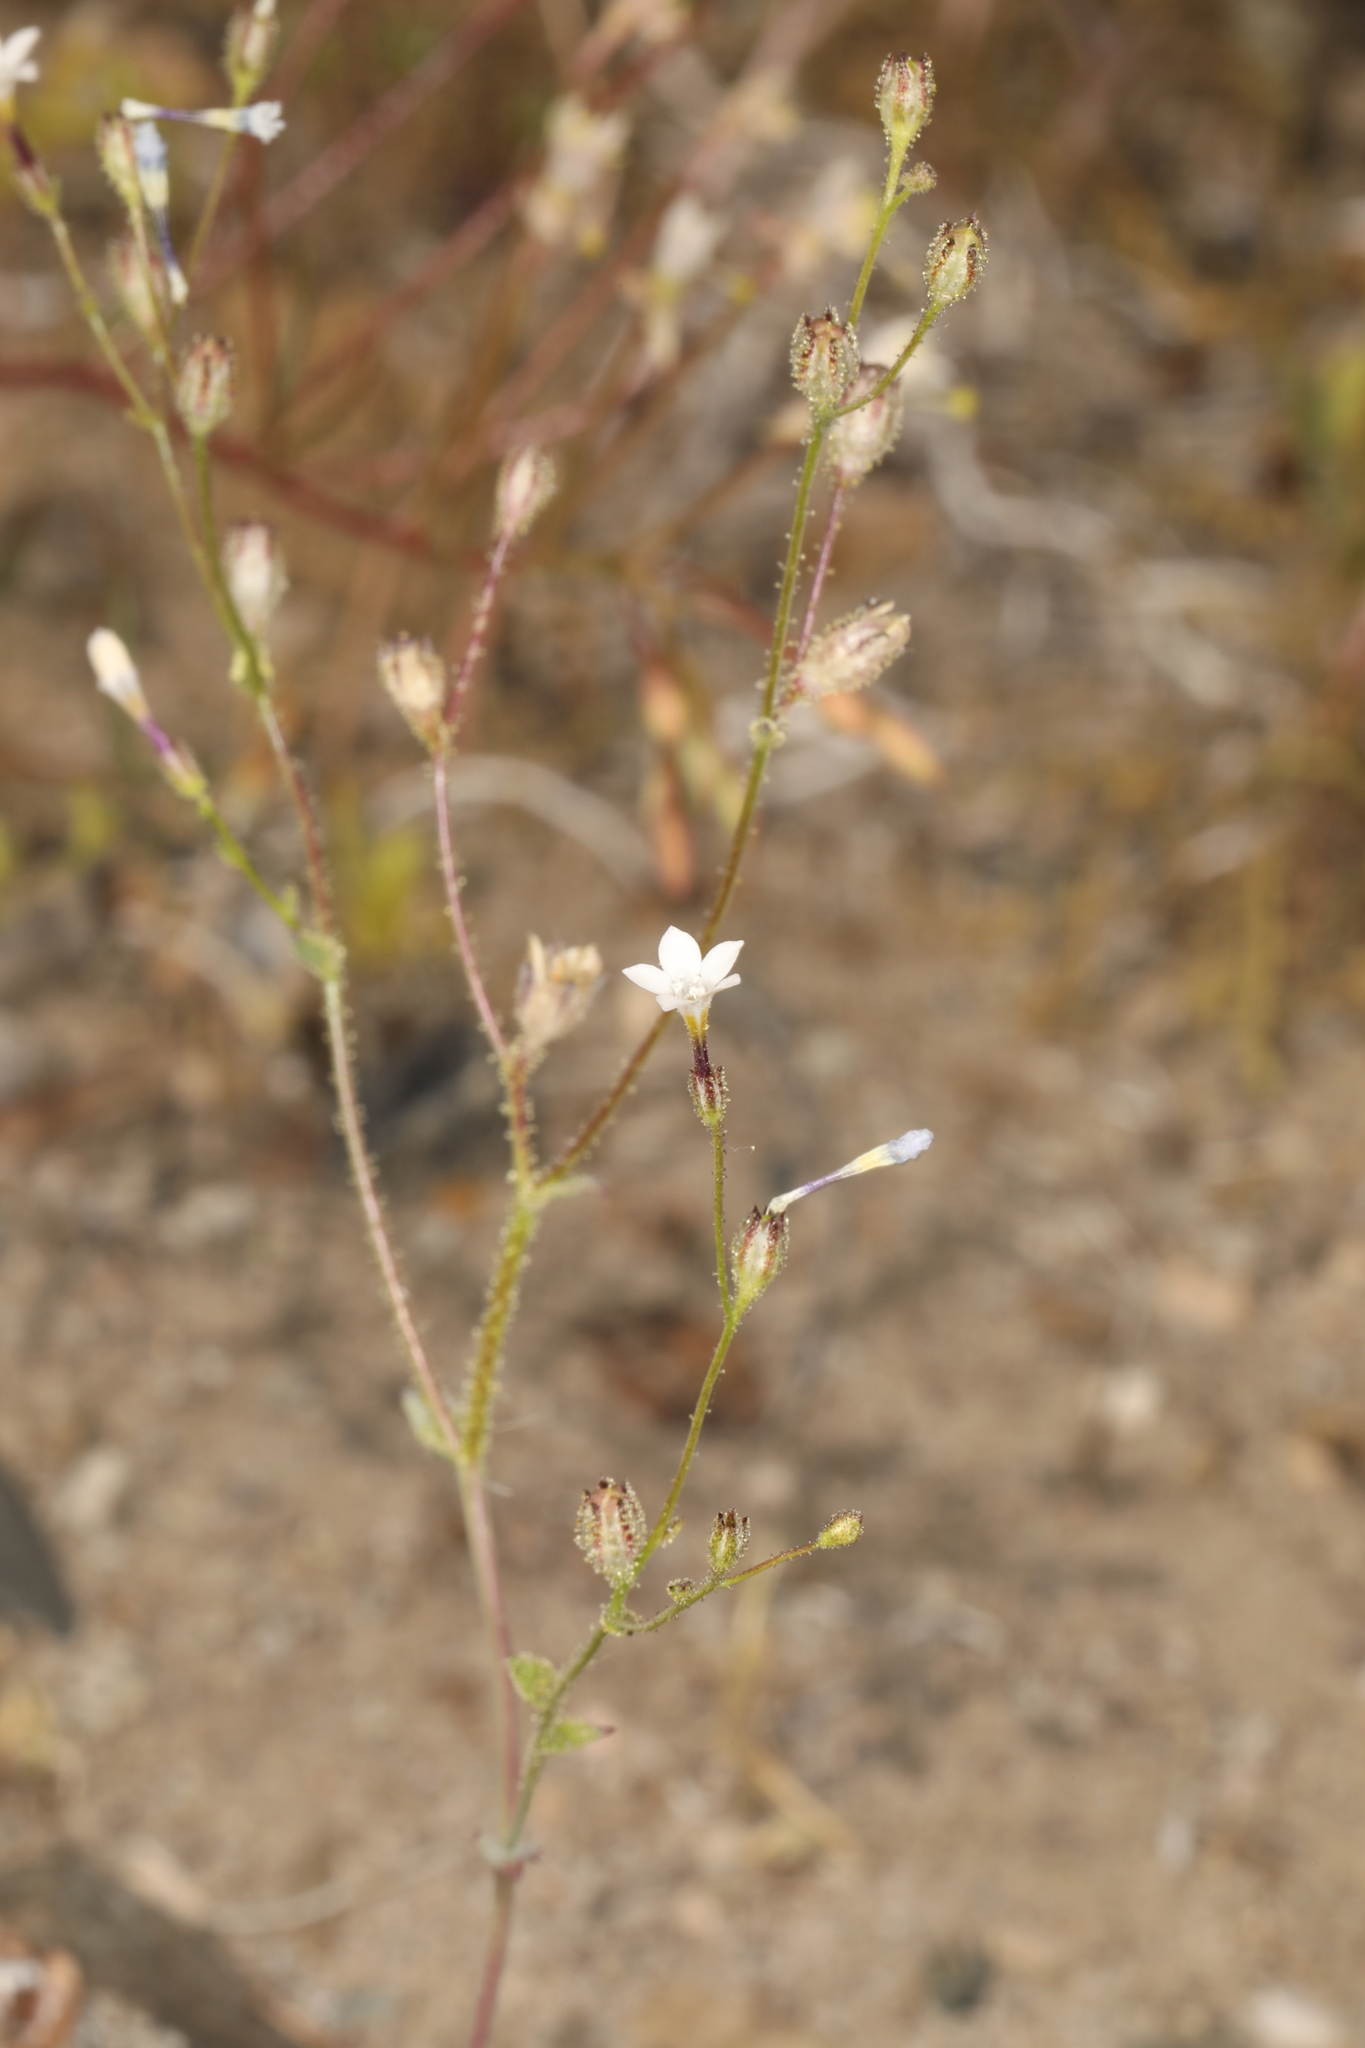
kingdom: Plantae
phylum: Tracheophyta
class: Magnoliopsida
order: Ericales
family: Polemoniaceae
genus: Gilia
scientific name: Gilia sinuata
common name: Rosy gilia
